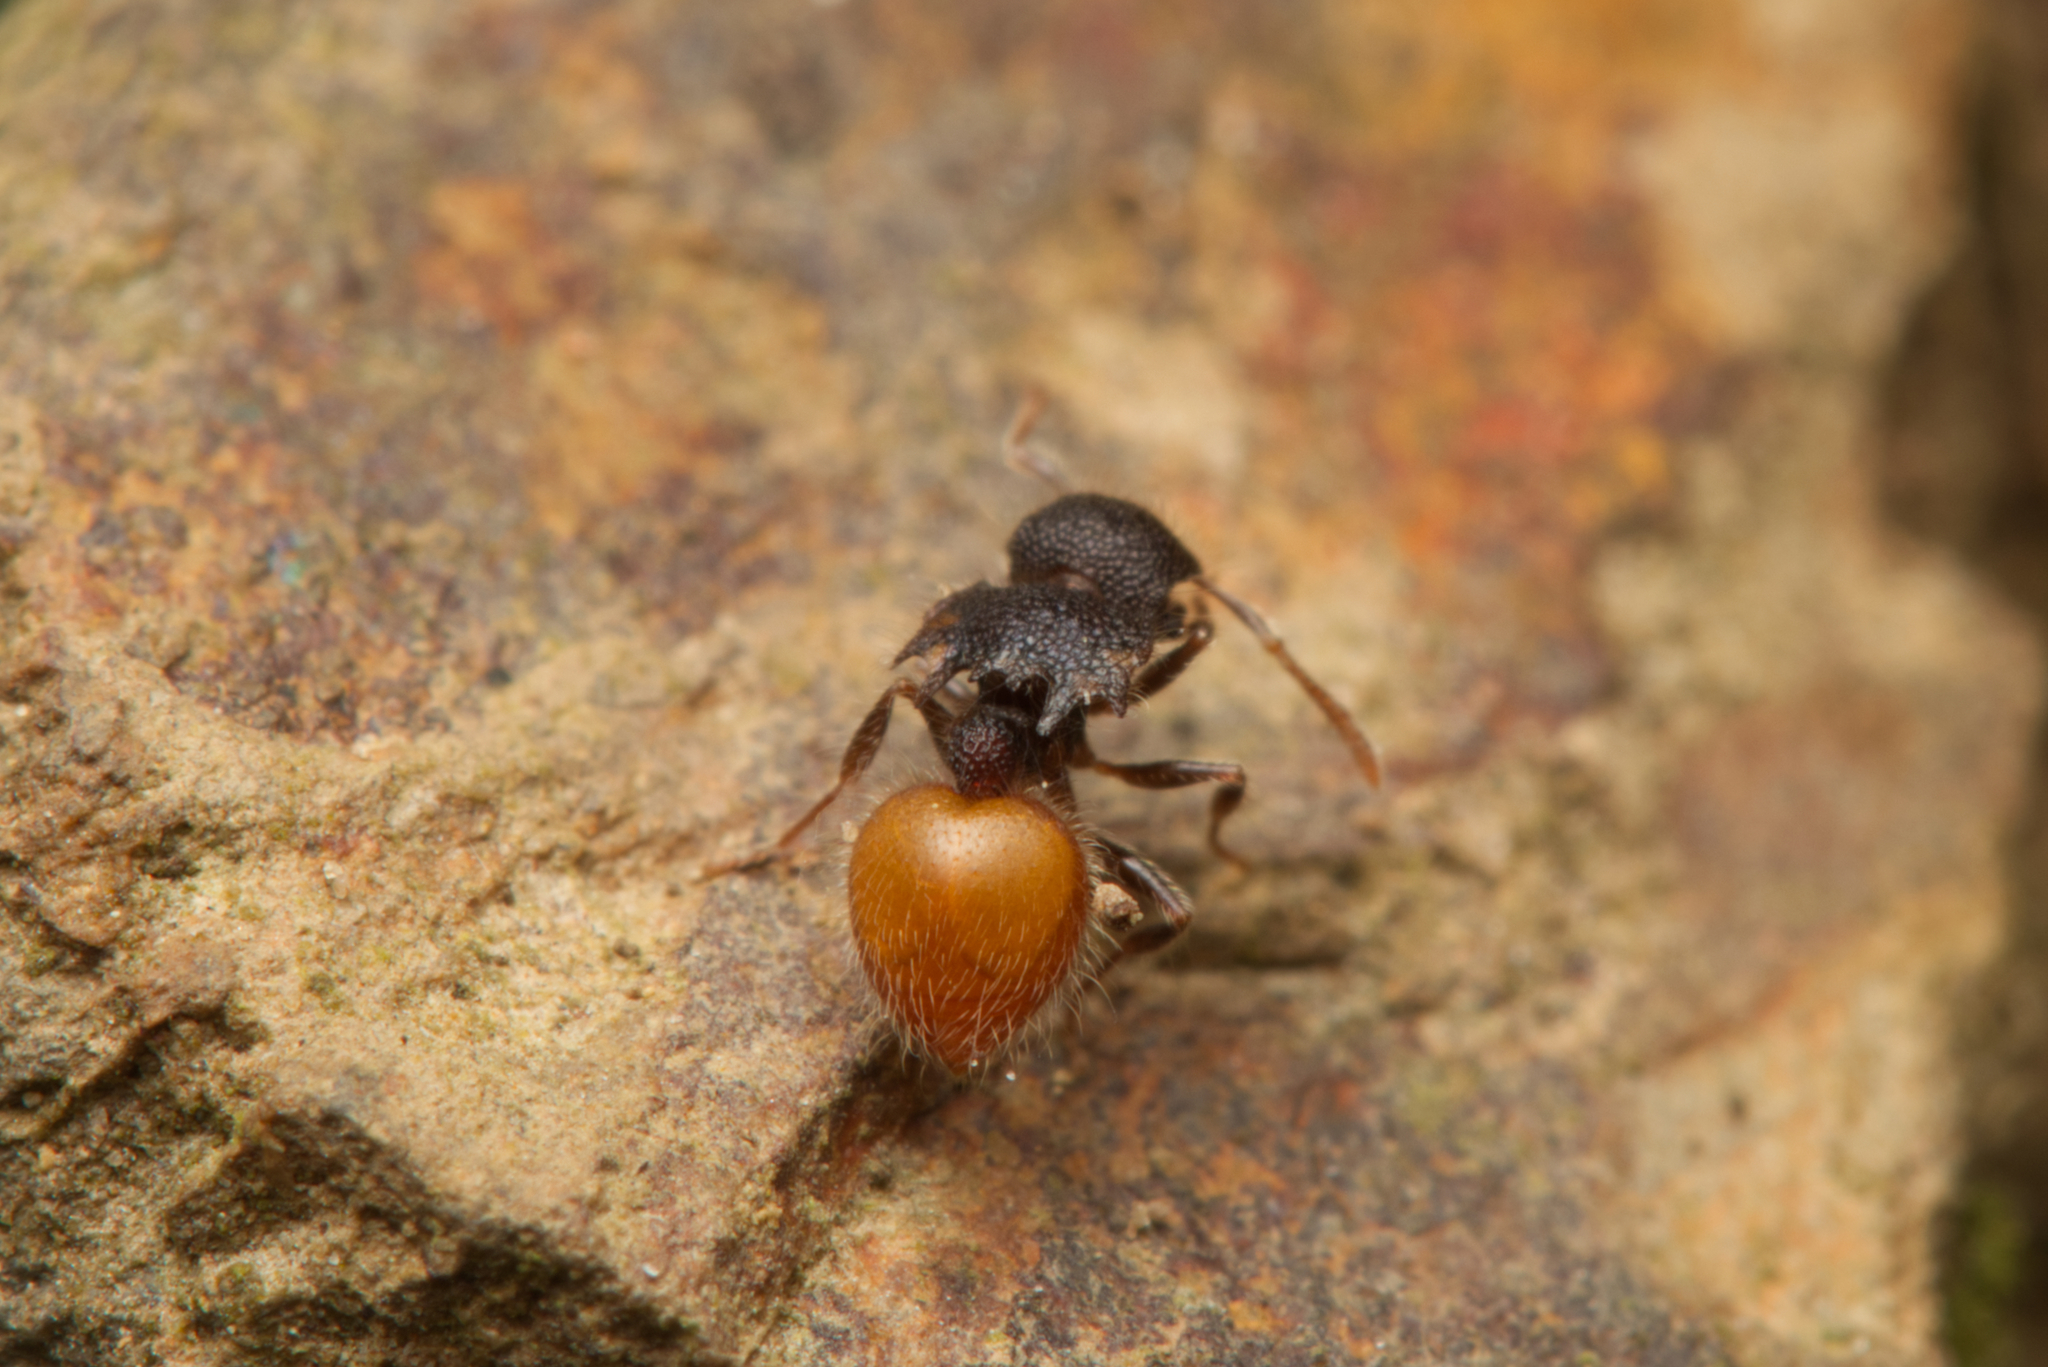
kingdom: Animalia
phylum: Arthropoda
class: Insecta
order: Hymenoptera
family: Formicidae
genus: Meranoplus
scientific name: Meranoplus hirsutus
